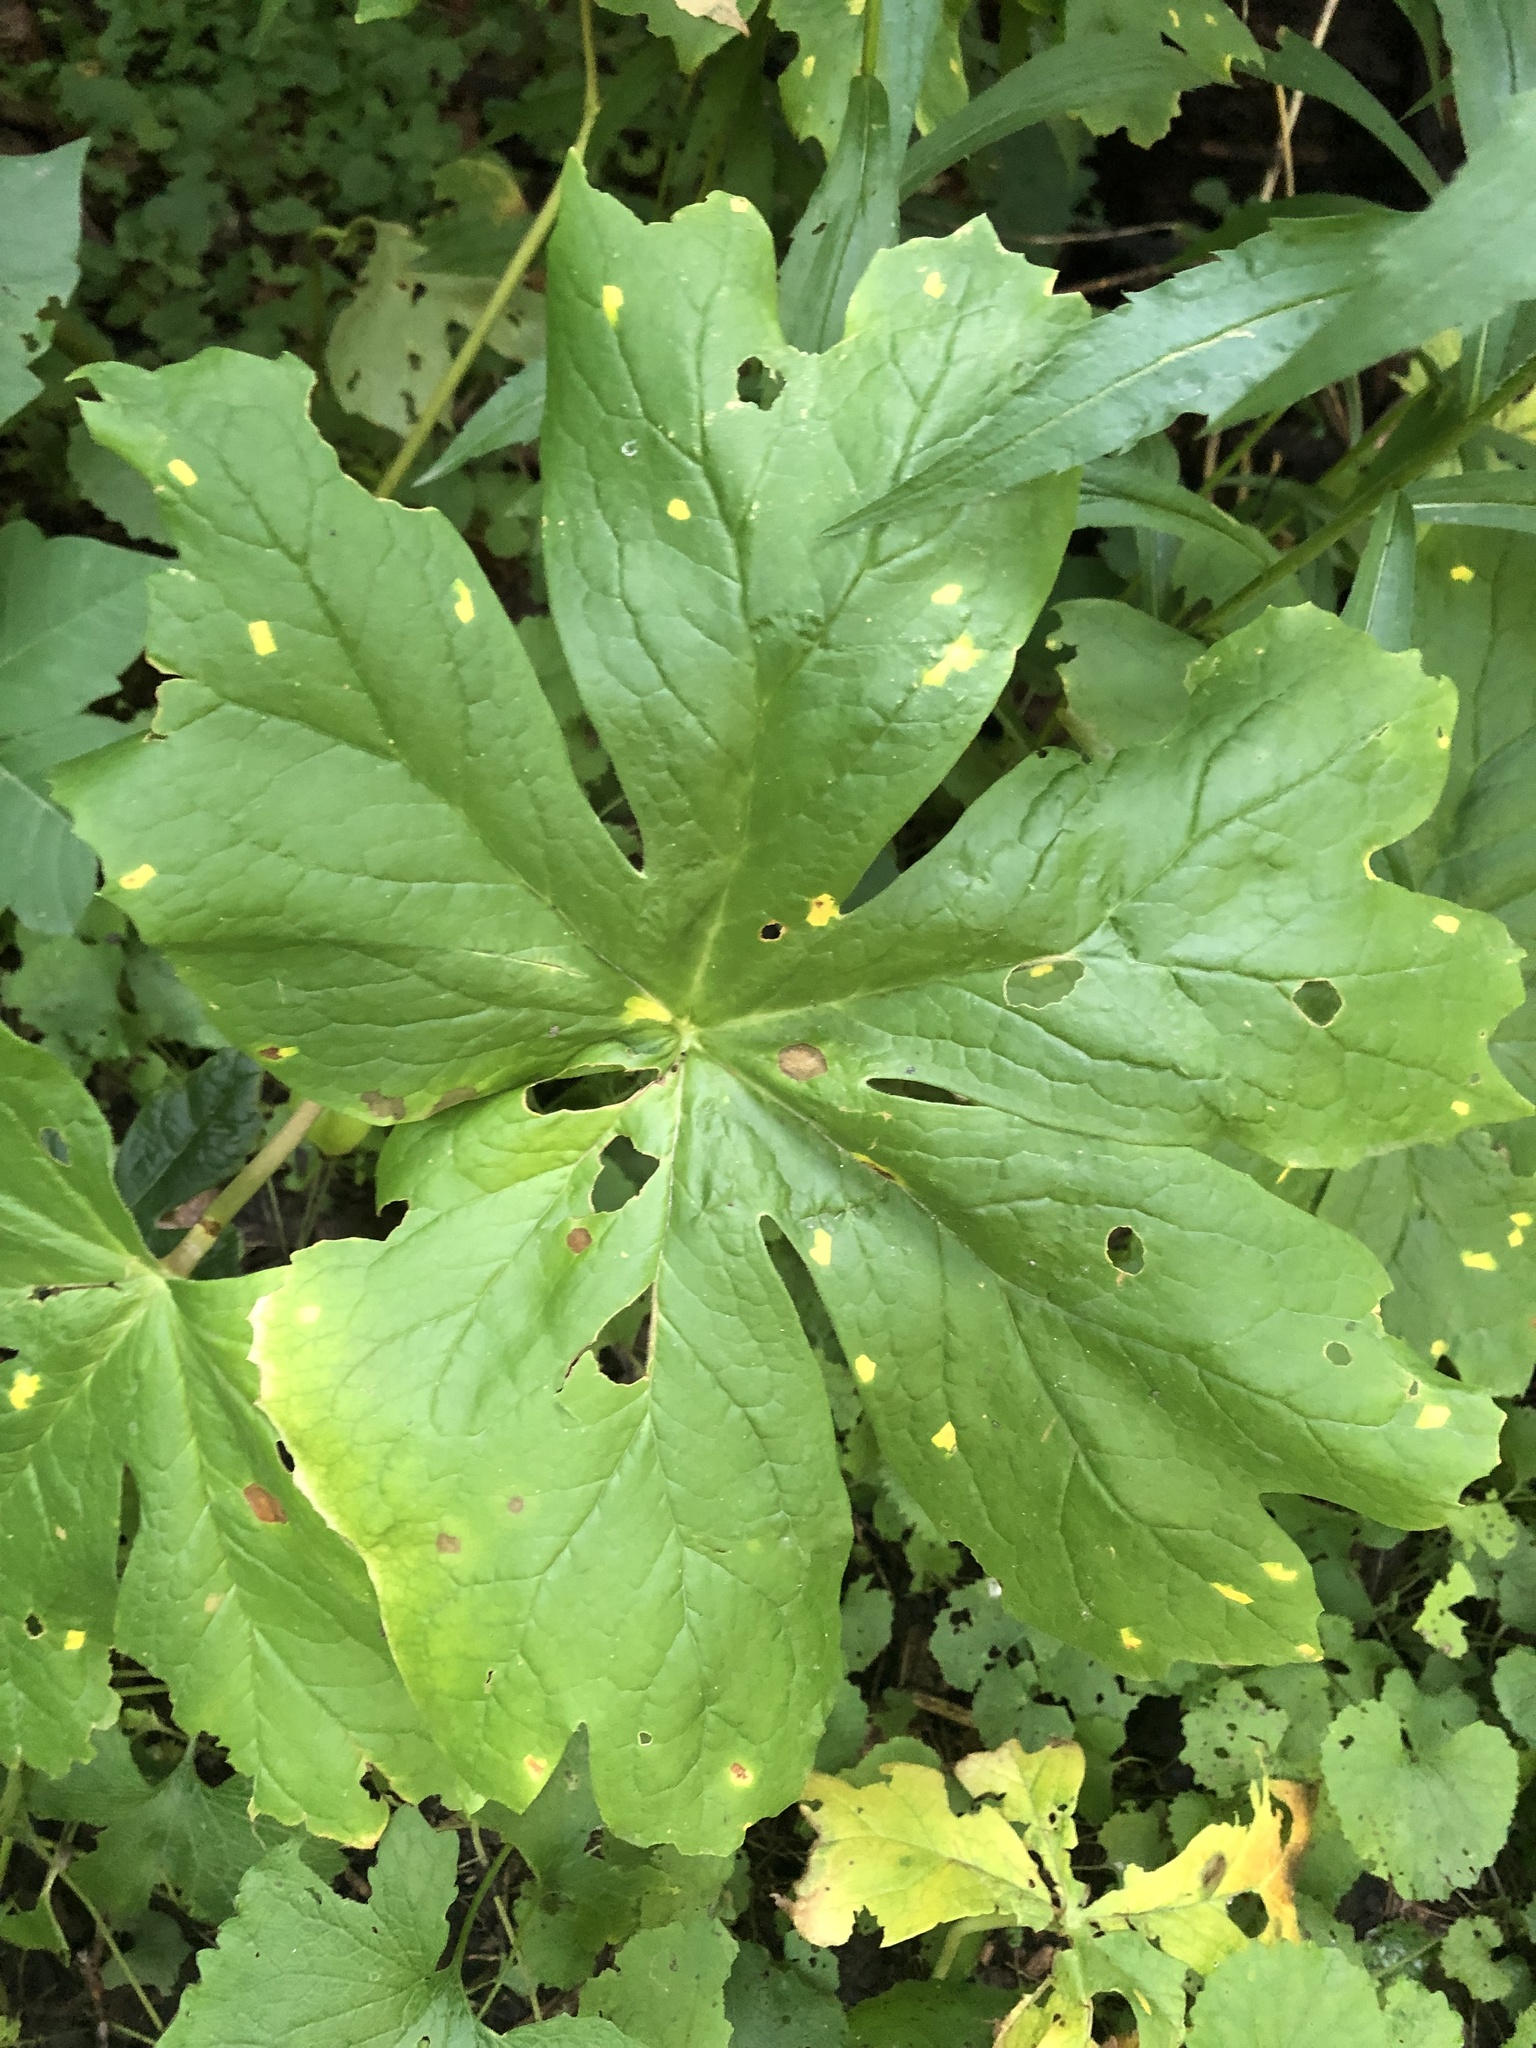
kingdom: Plantae
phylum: Tracheophyta
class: Magnoliopsida
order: Ranunculales
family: Berberidaceae
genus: Podophyllum
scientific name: Podophyllum peltatum
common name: Wild mandrake
